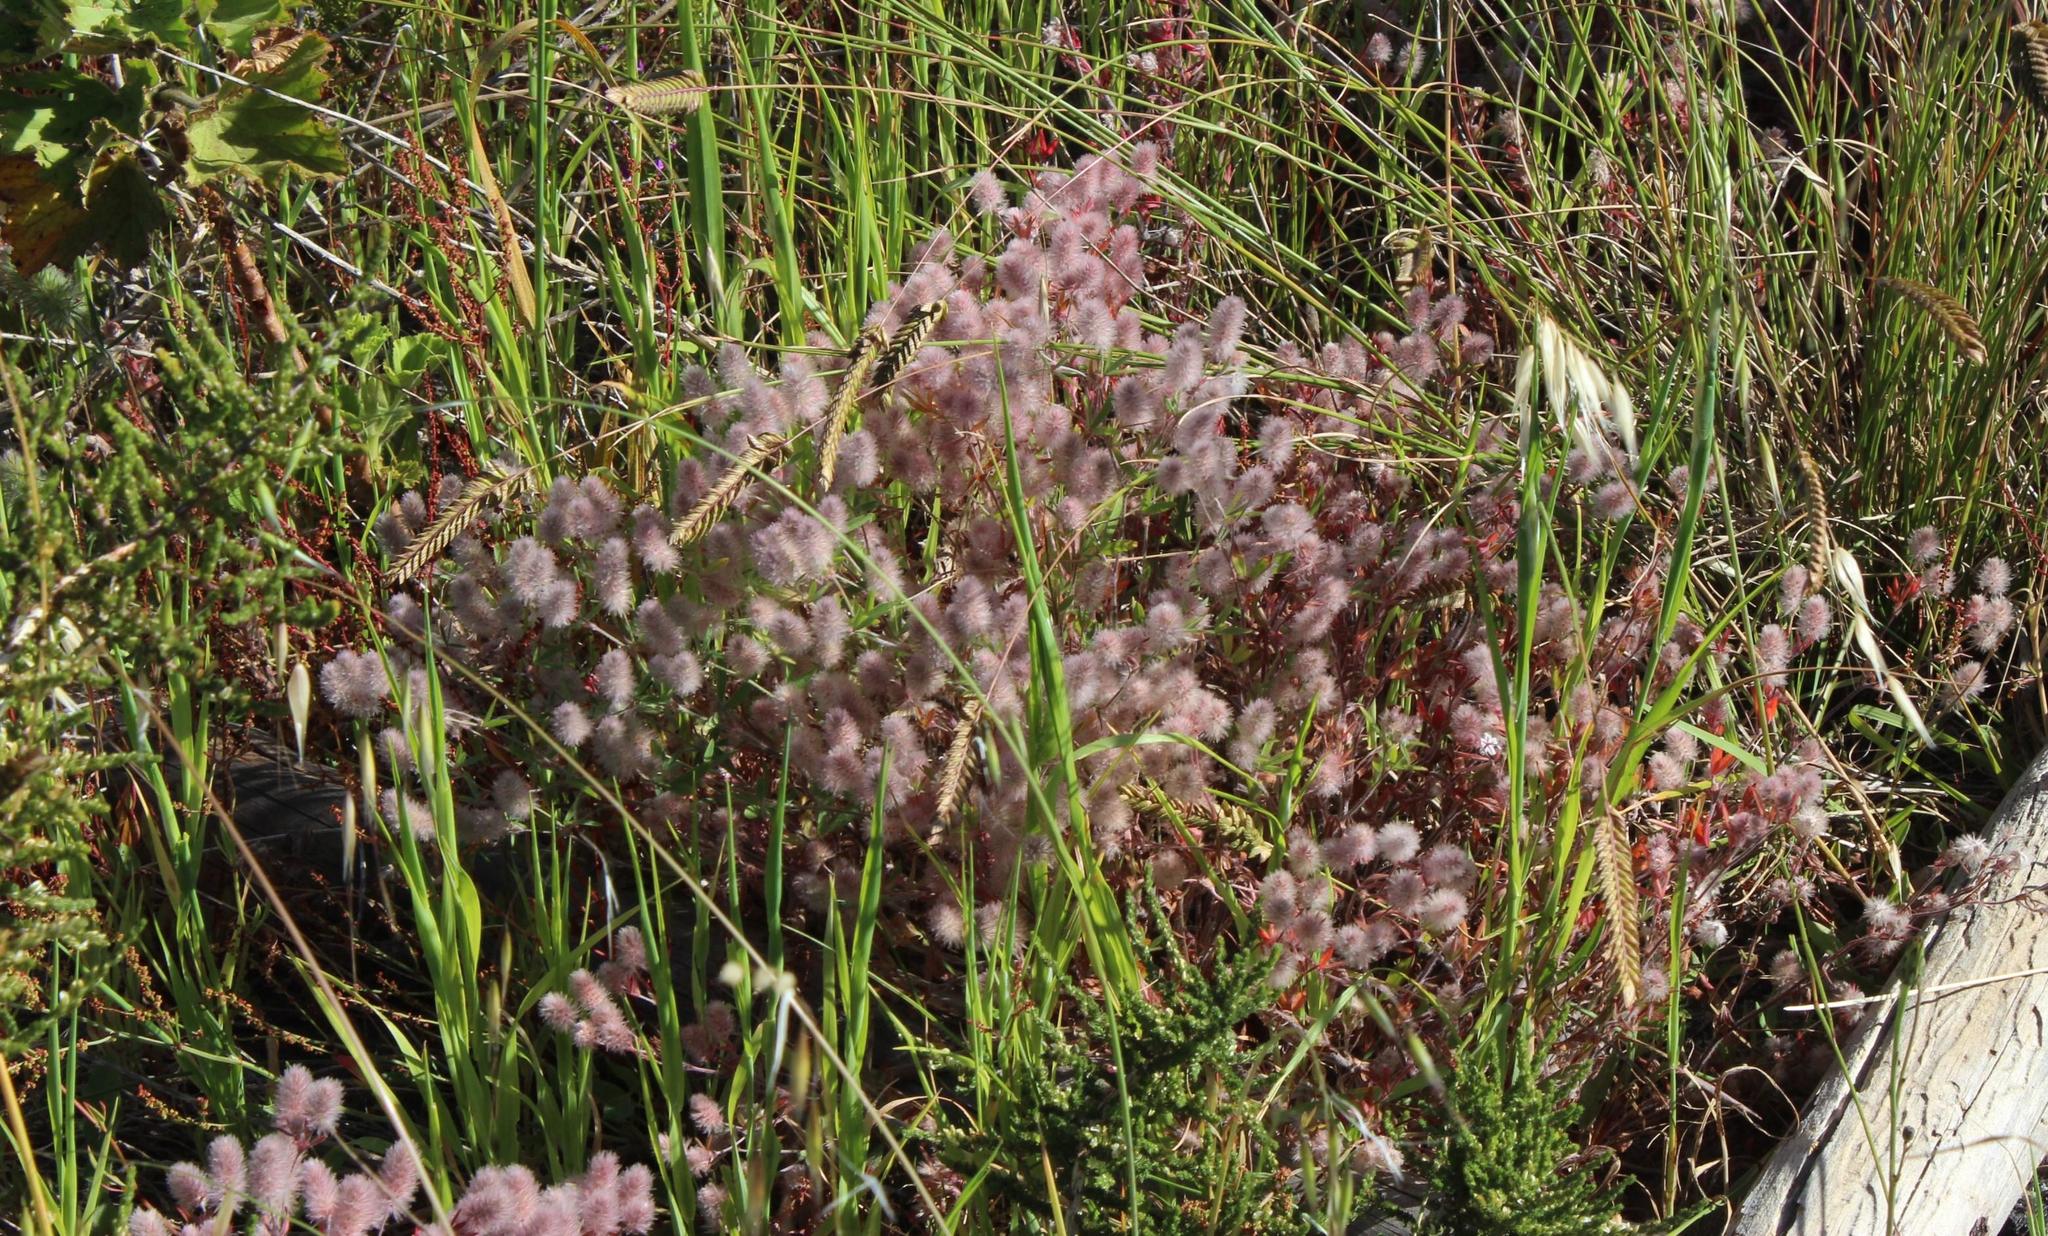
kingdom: Plantae
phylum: Tracheophyta
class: Magnoliopsida
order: Fabales
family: Fabaceae
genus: Trifolium
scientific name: Trifolium arvense
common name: Hare's-foot clover
